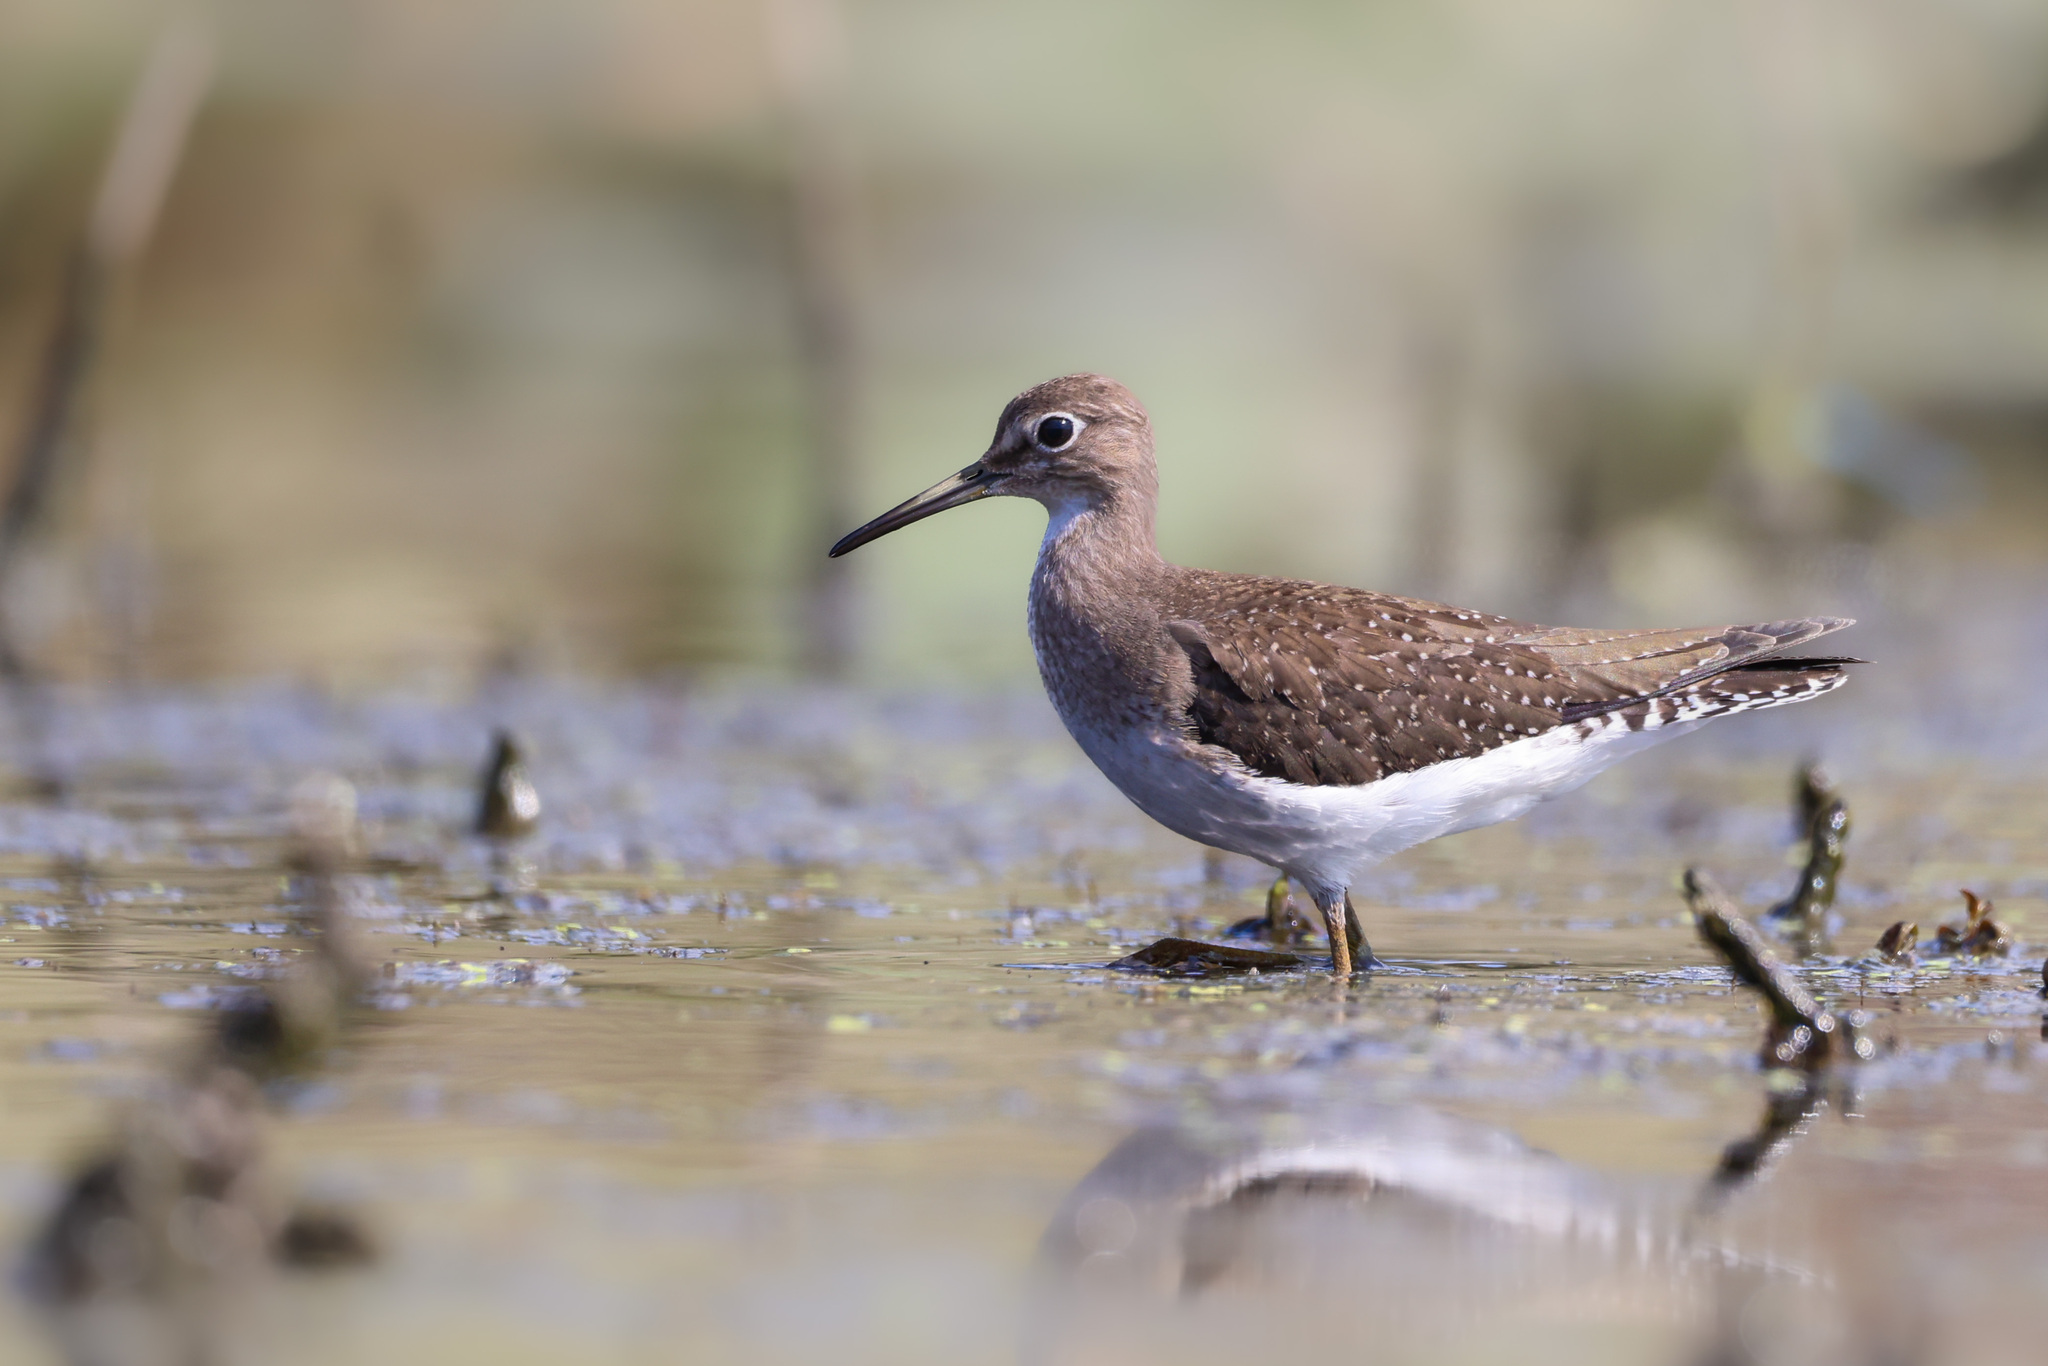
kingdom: Animalia
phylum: Chordata
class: Aves
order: Charadriiformes
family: Scolopacidae
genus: Tringa
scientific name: Tringa solitaria
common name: Solitary sandpiper
